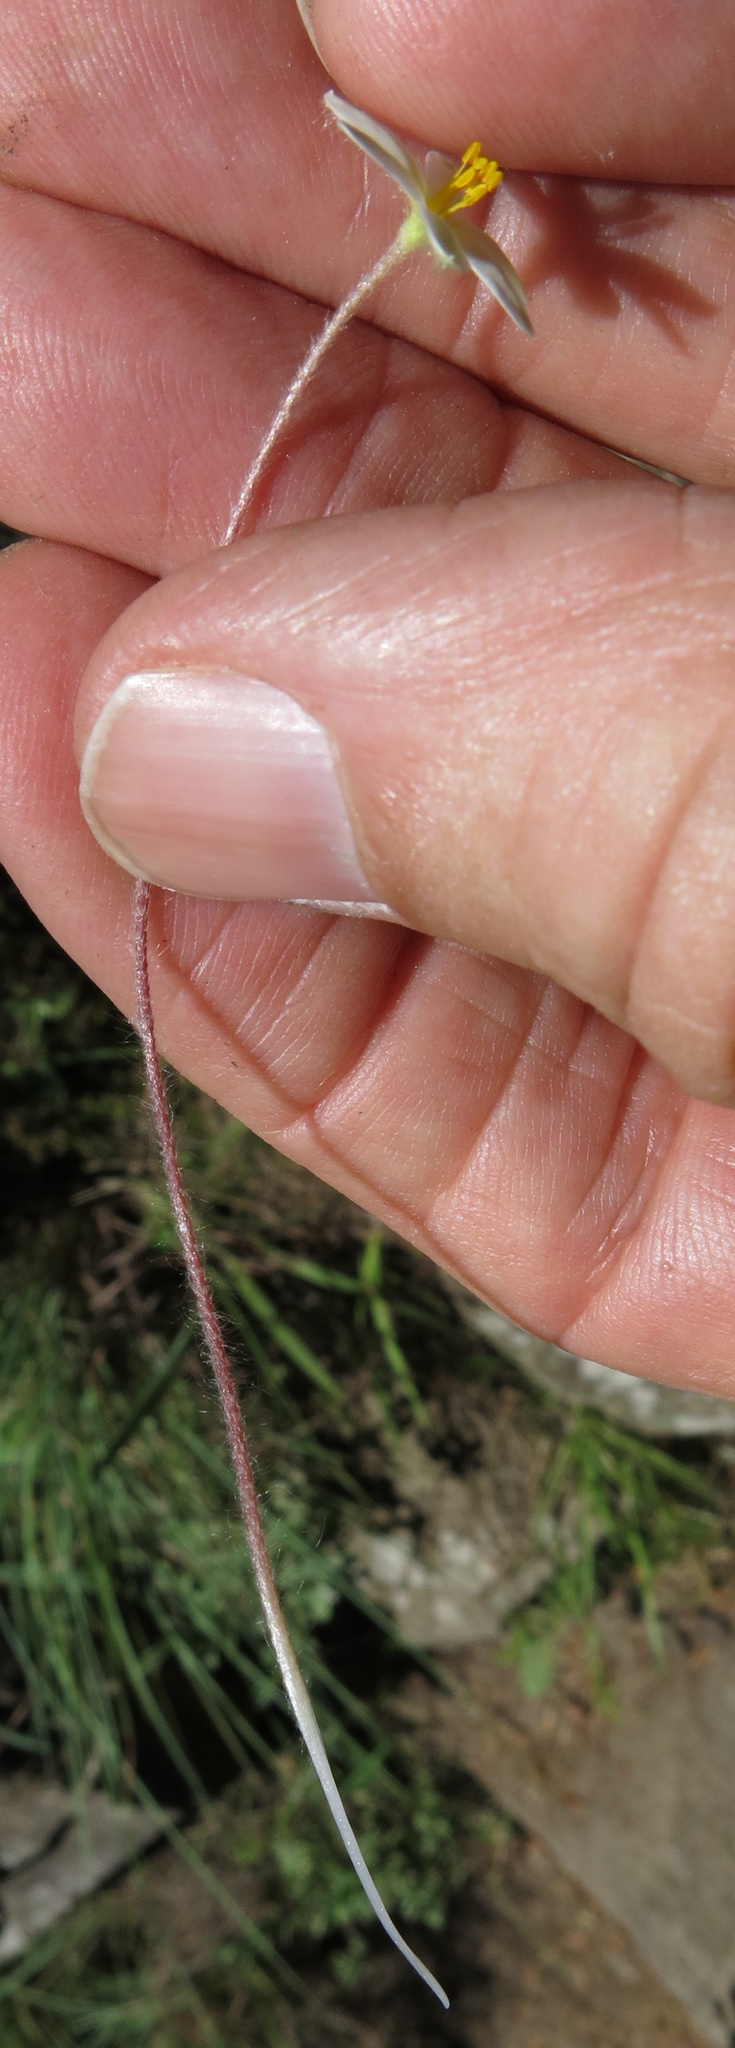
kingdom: Plantae
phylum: Tracheophyta
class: Liliopsida
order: Asparagales
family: Hypoxidaceae
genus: Hypoxis
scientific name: Hypoxis parvula
